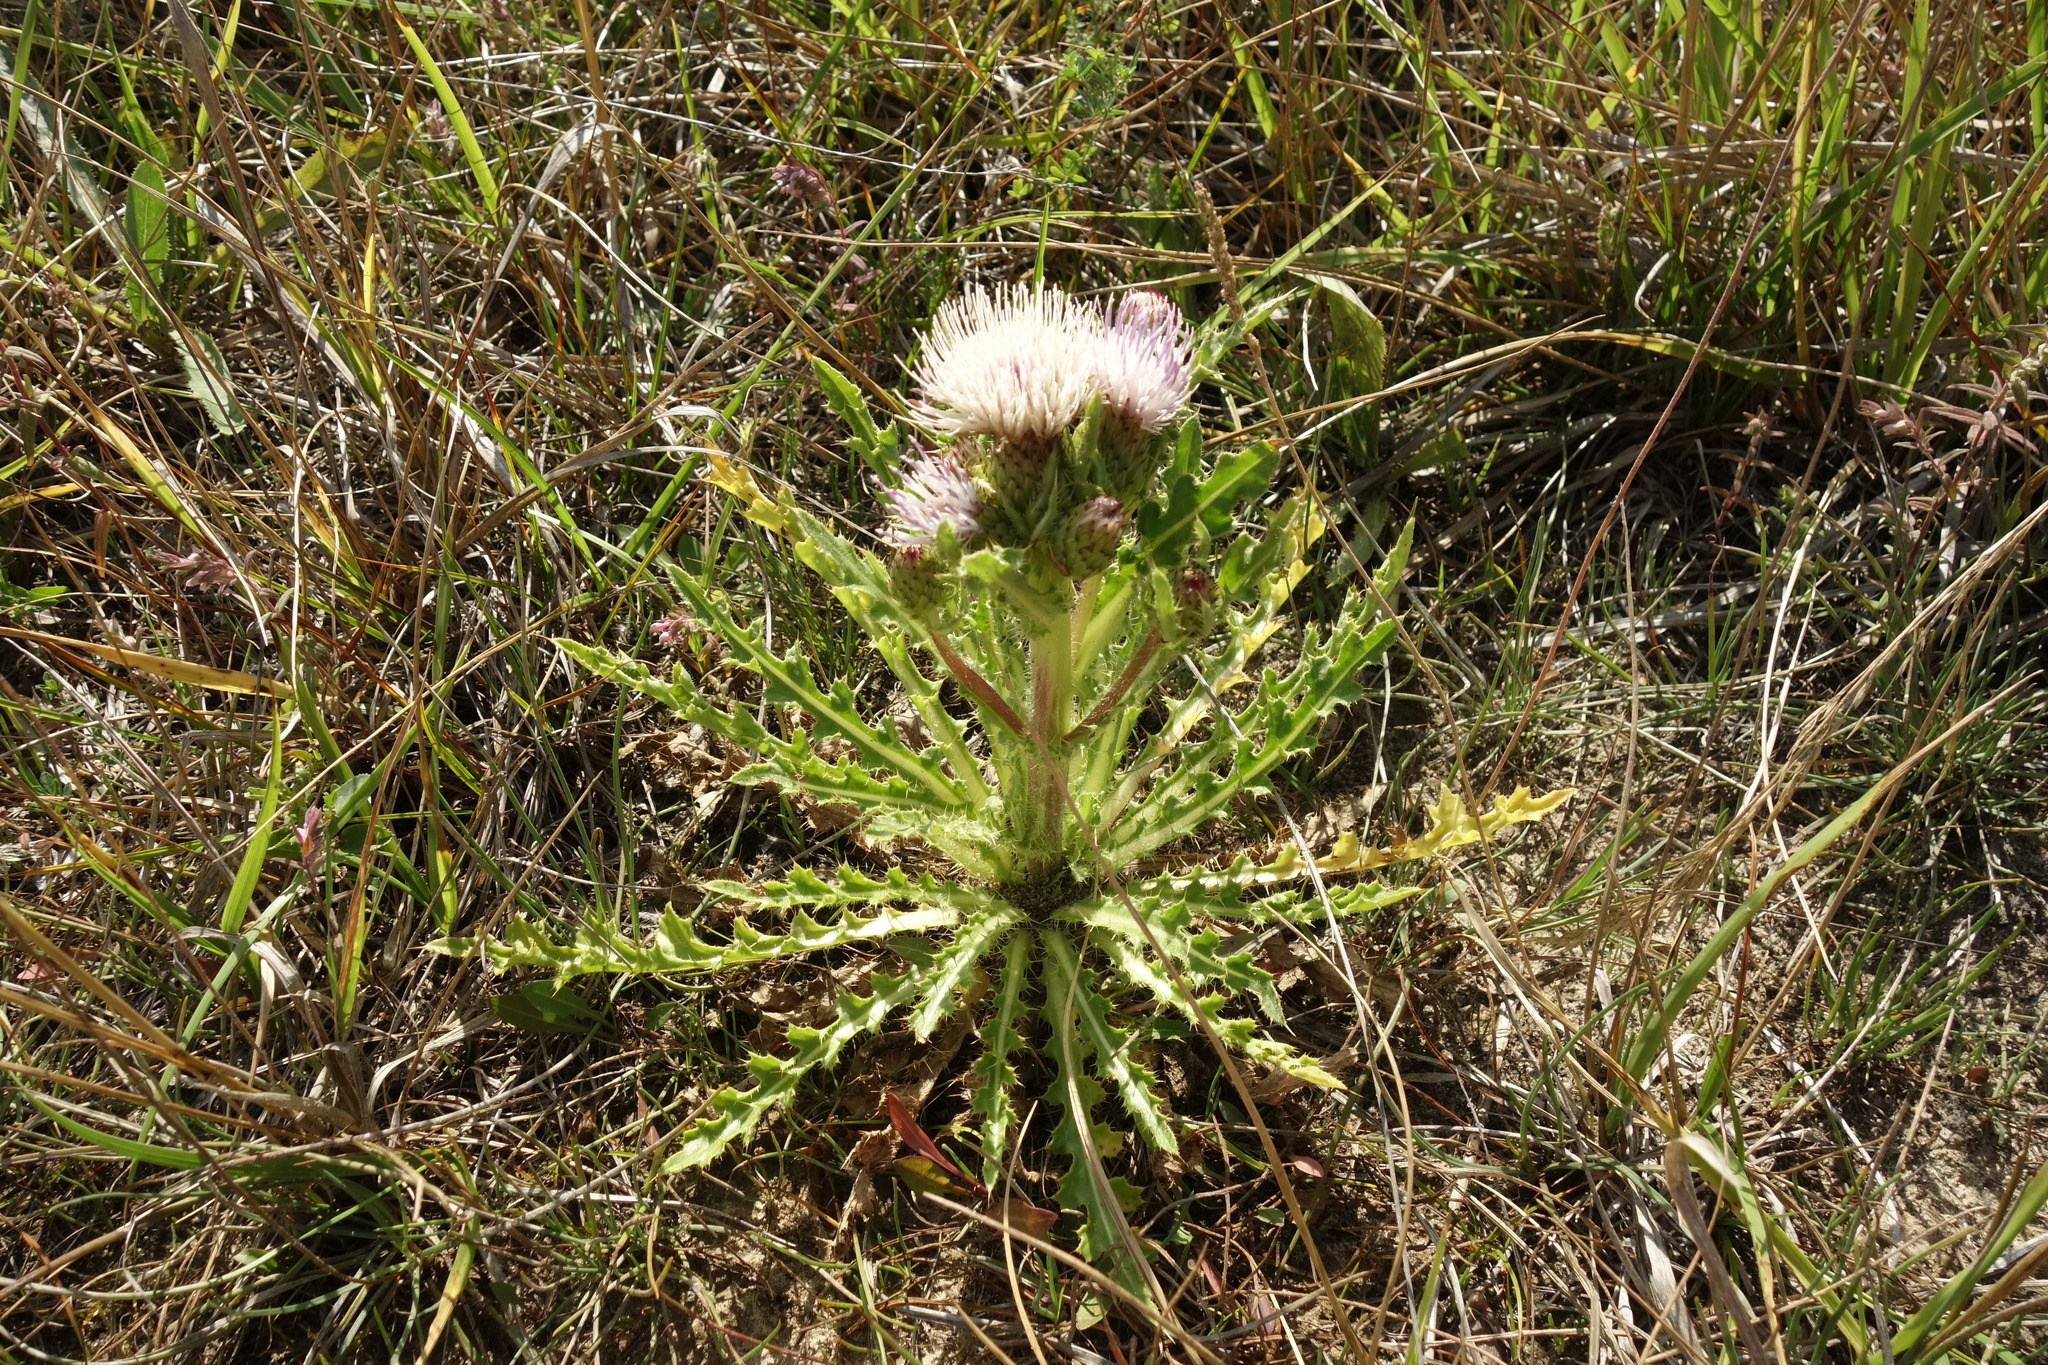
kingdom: Plantae
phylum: Tracheophyta
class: Magnoliopsida
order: Asterales
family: Asteraceae
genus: Cirsium
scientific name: Cirsium esculentum
